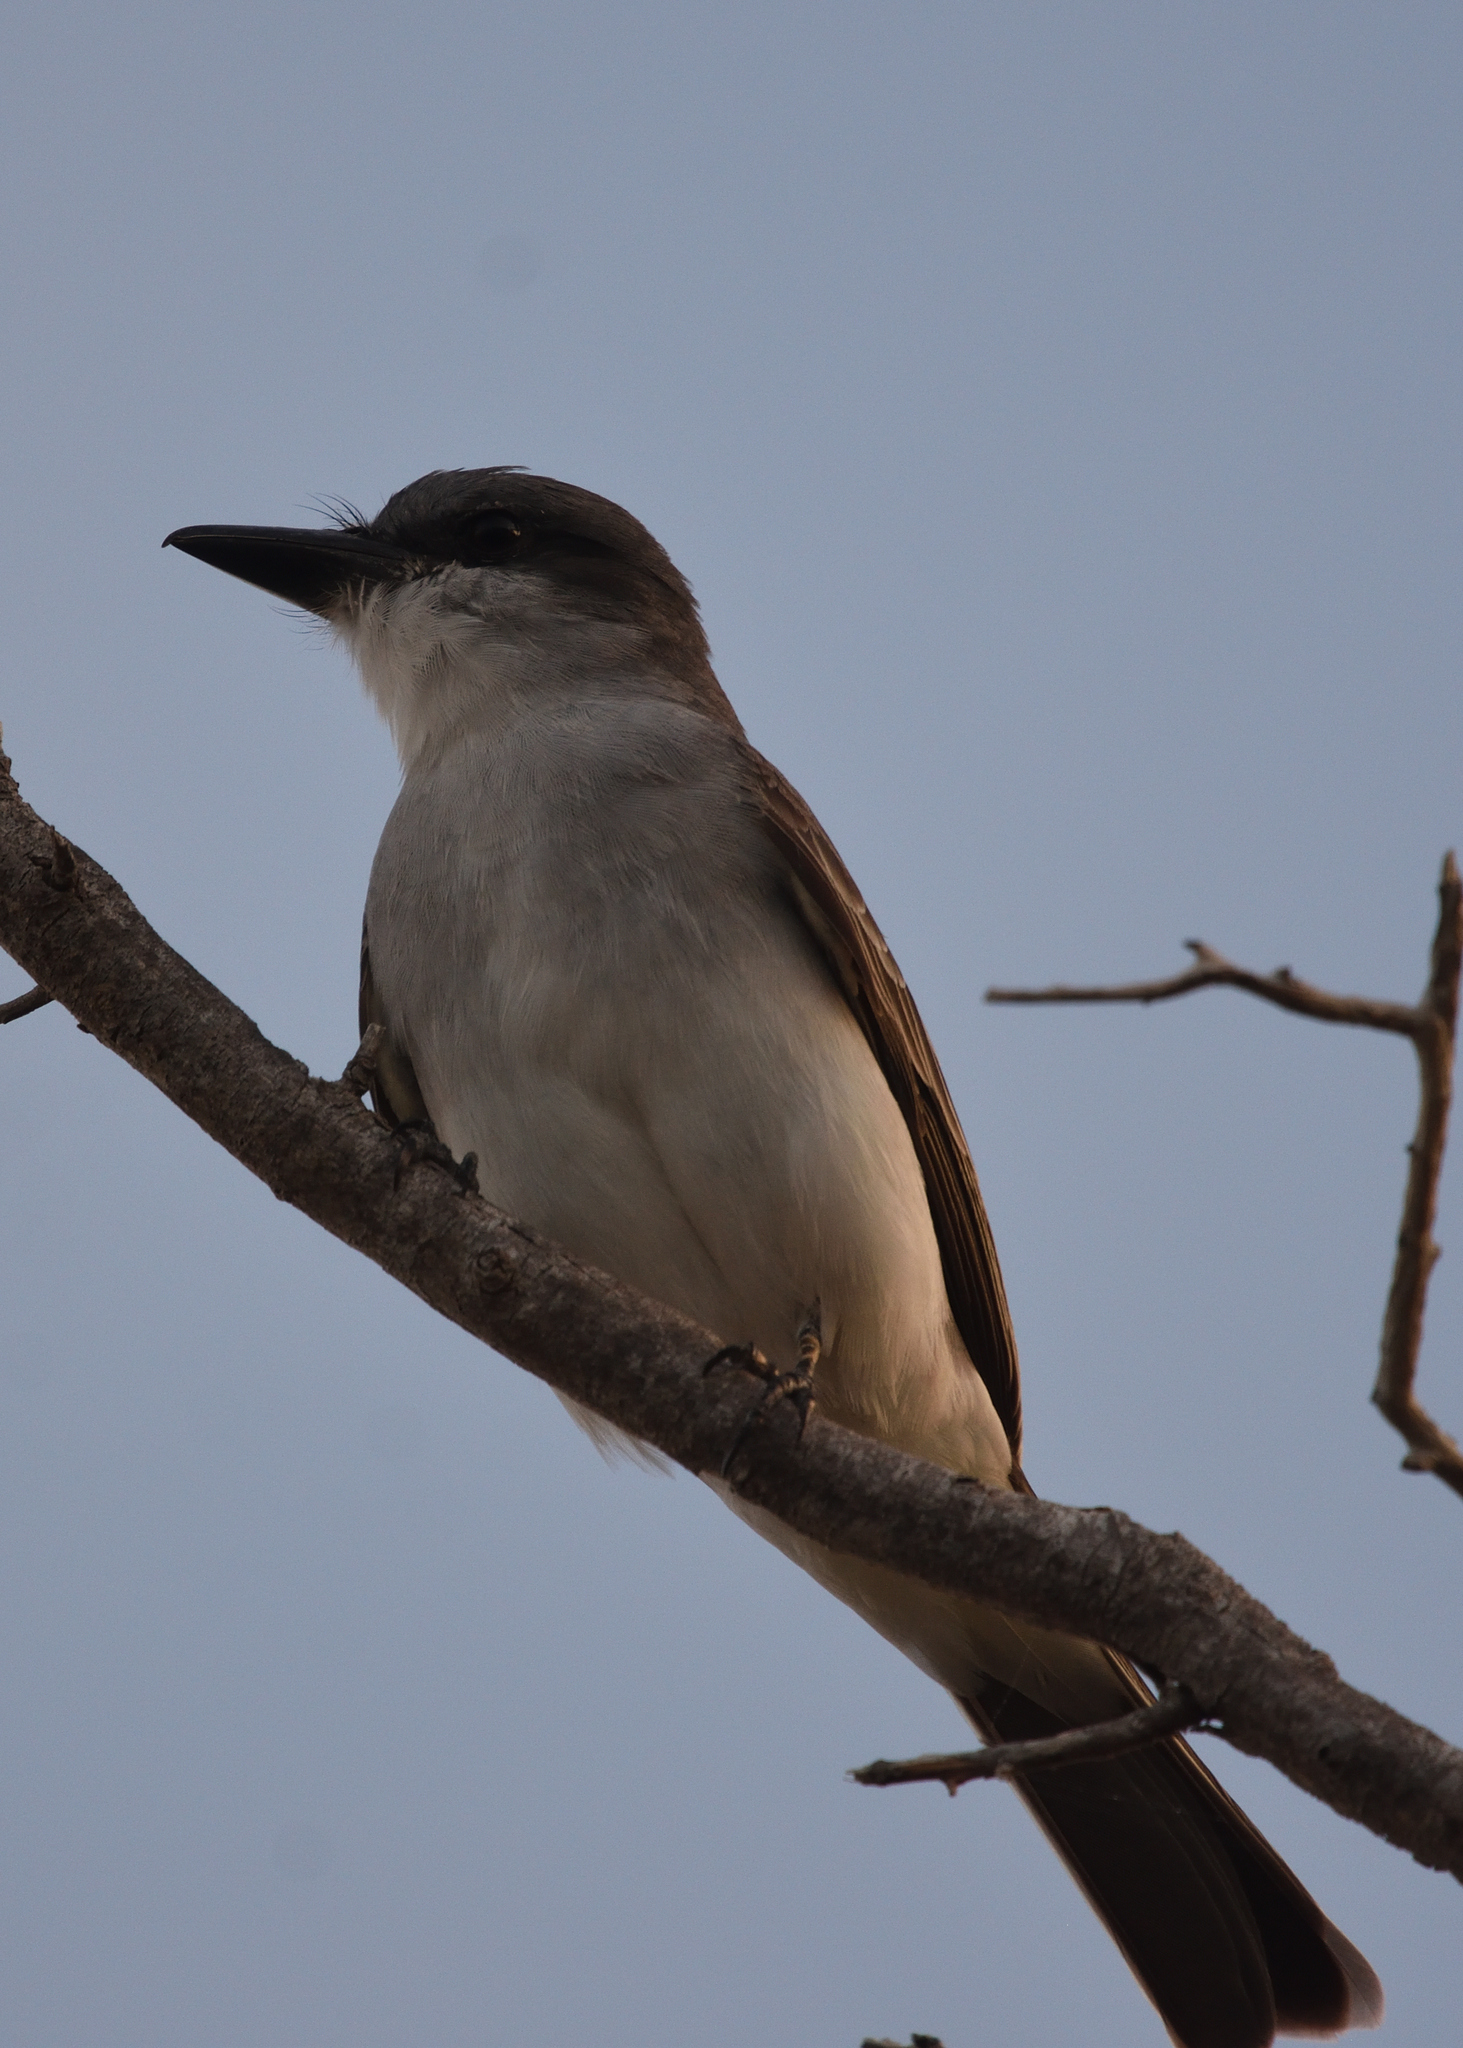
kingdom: Animalia
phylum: Chordata
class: Aves
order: Passeriformes
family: Tyrannidae
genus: Tyrannus
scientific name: Tyrannus dominicensis
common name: Gray kingbird
